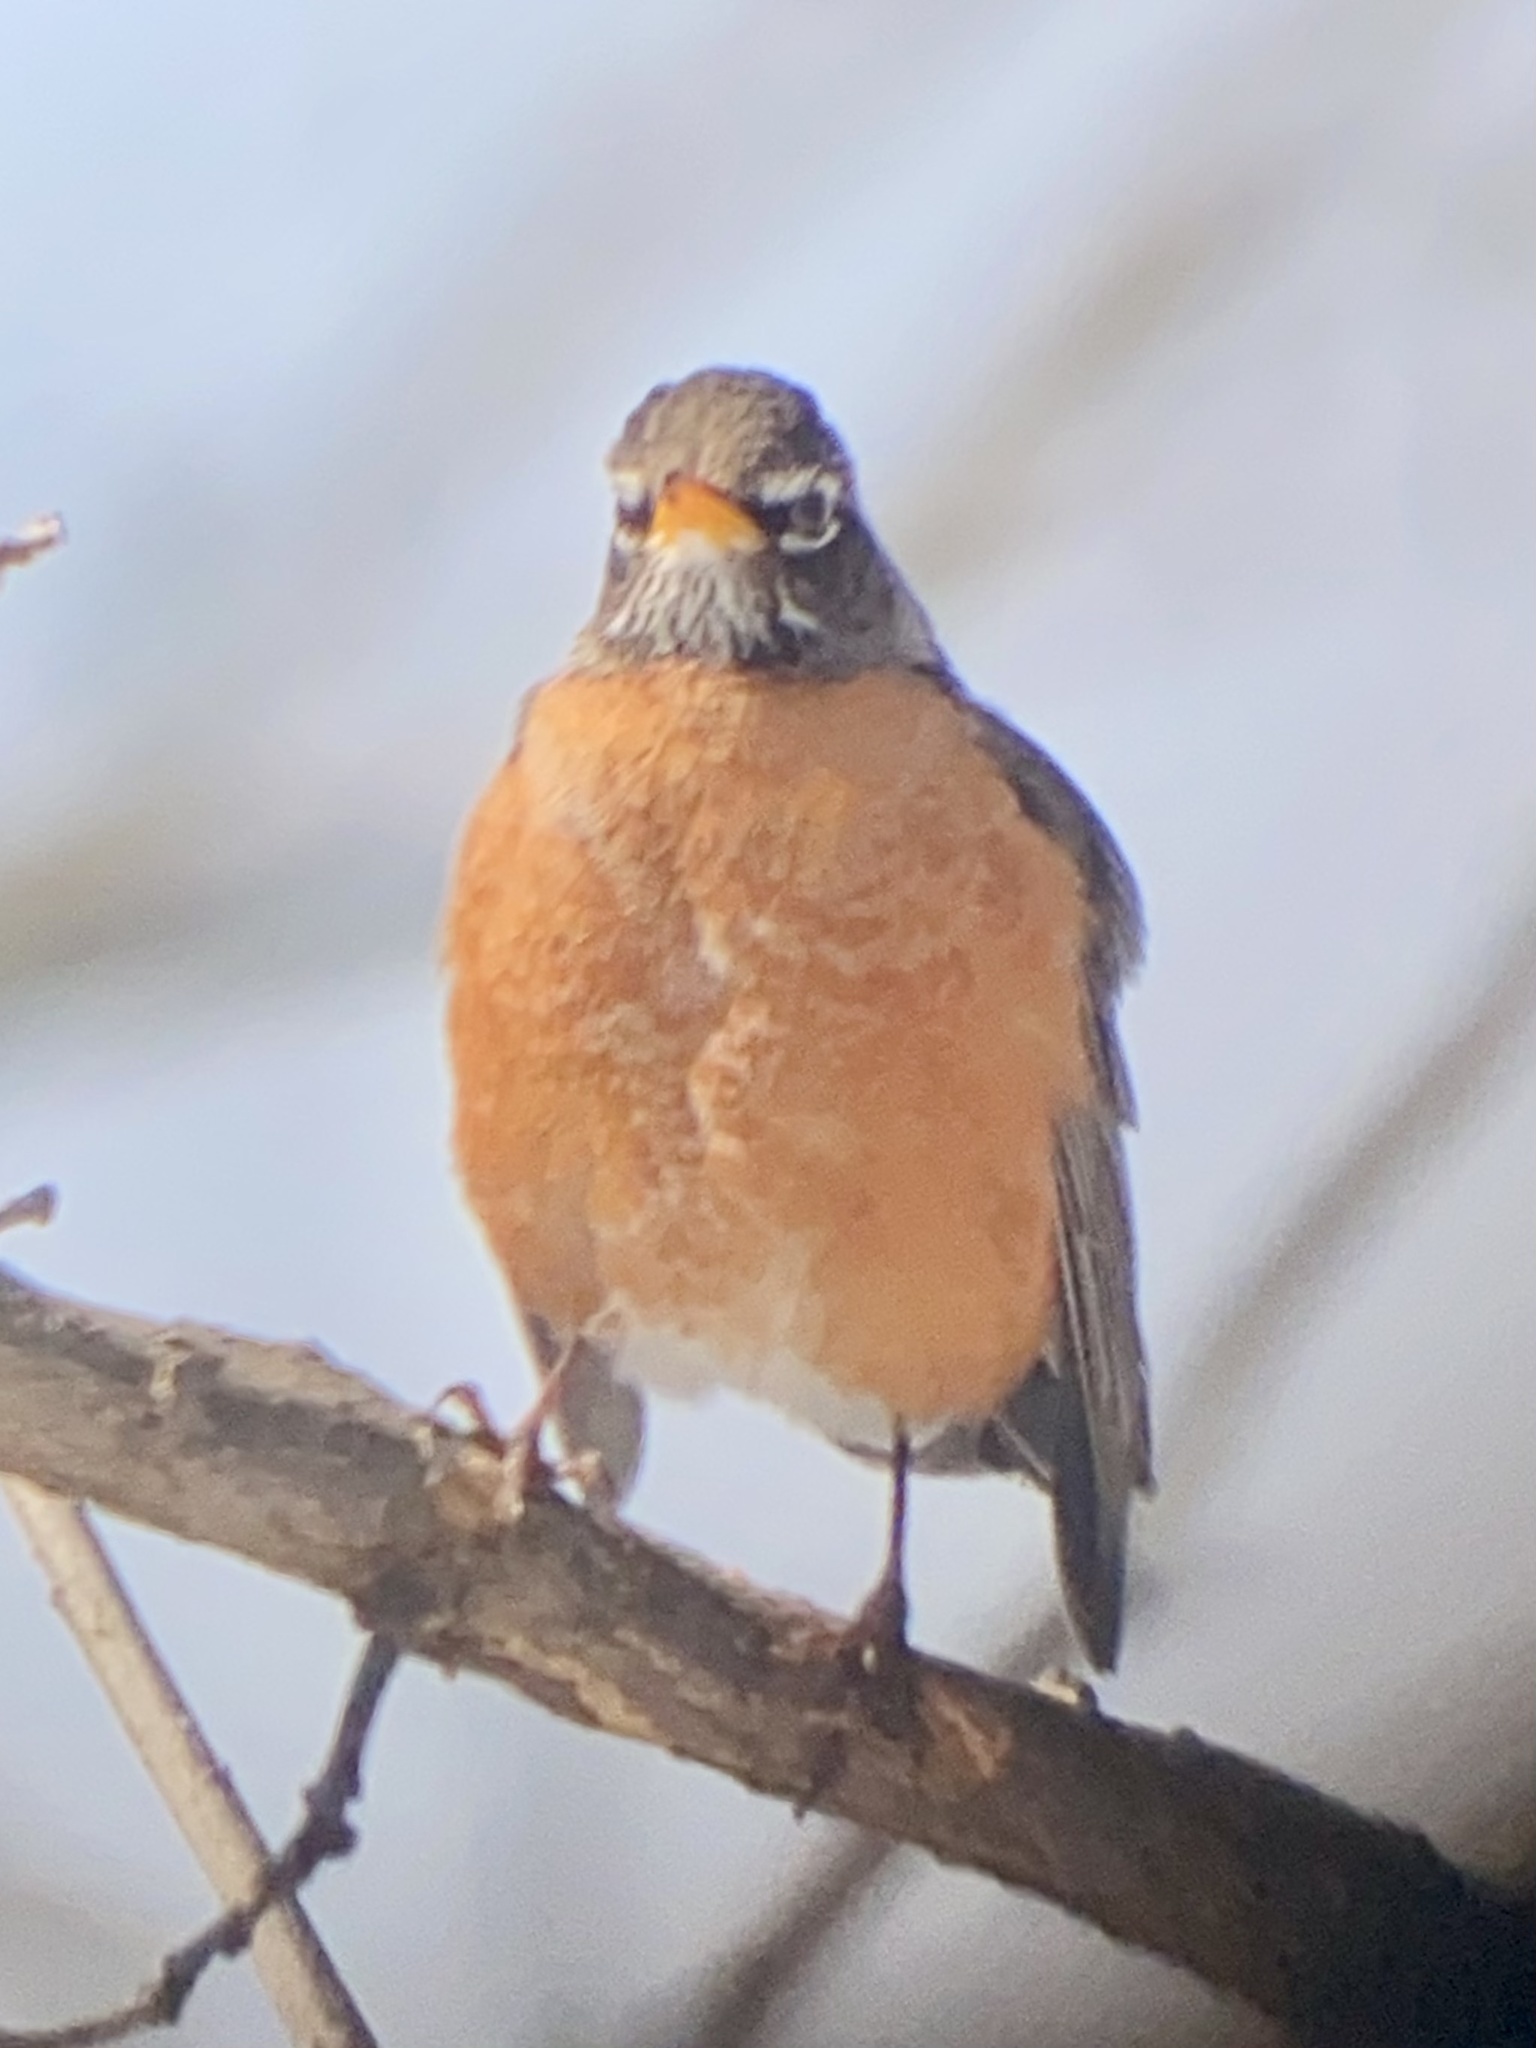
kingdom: Animalia
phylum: Chordata
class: Aves
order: Passeriformes
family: Turdidae
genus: Turdus
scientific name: Turdus migratorius
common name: American robin
